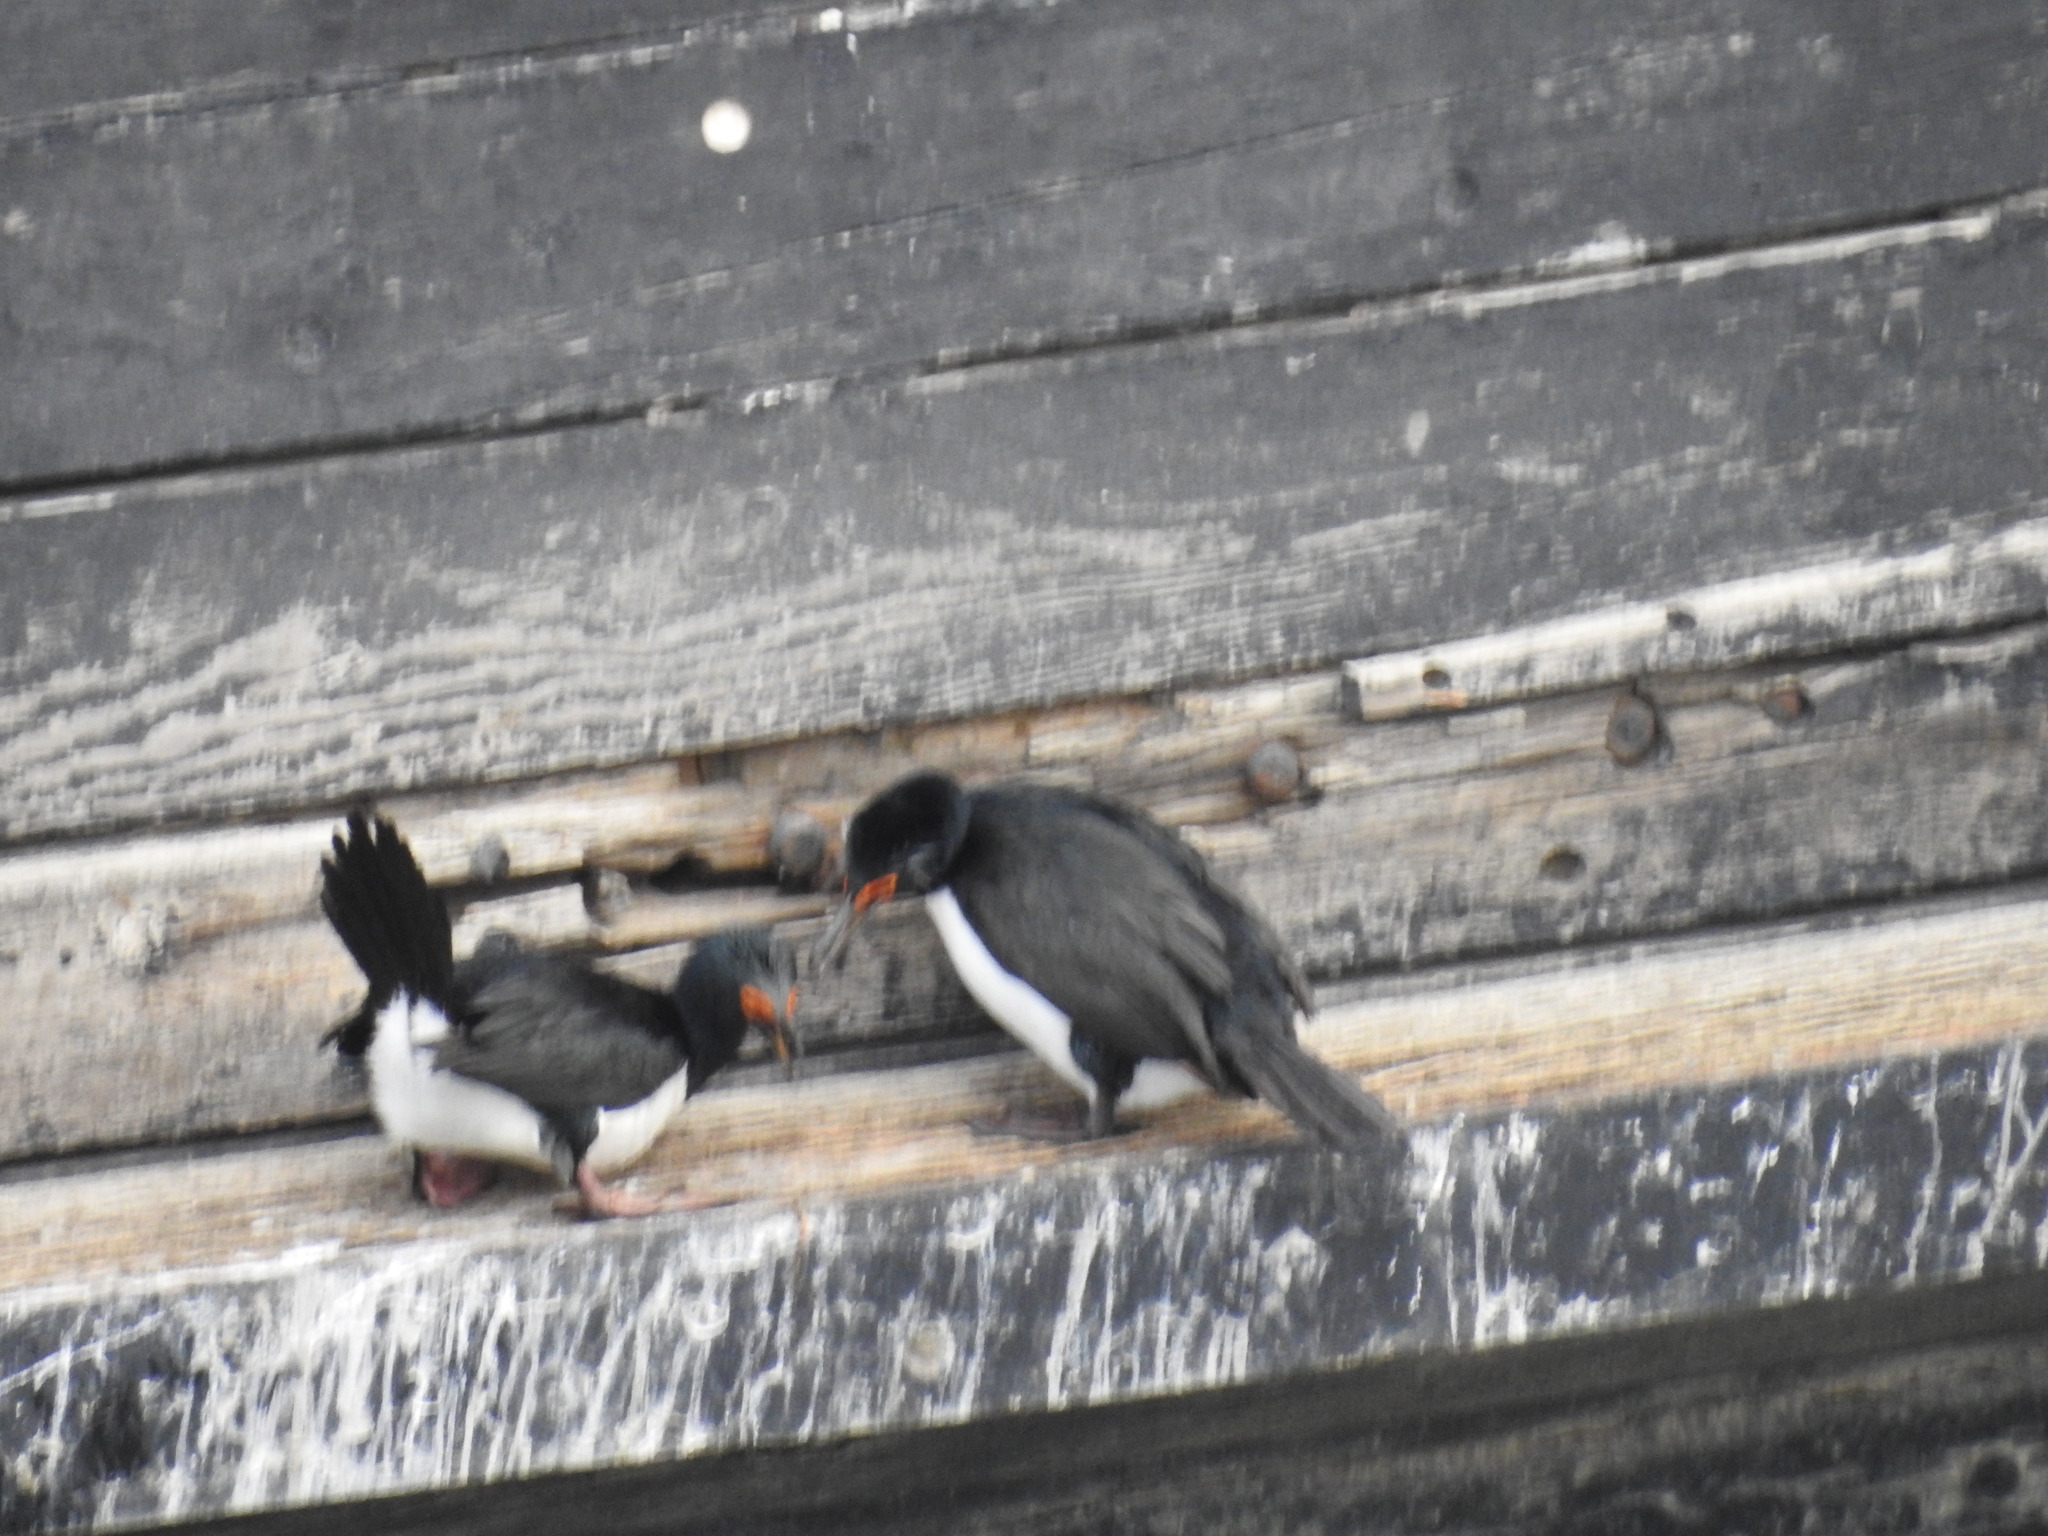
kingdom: Animalia
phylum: Chordata
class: Aves
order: Suliformes
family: Phalacrocoracidae
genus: Phalacrocorax
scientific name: Phalacrocorax magellanicus
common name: Rock shag
